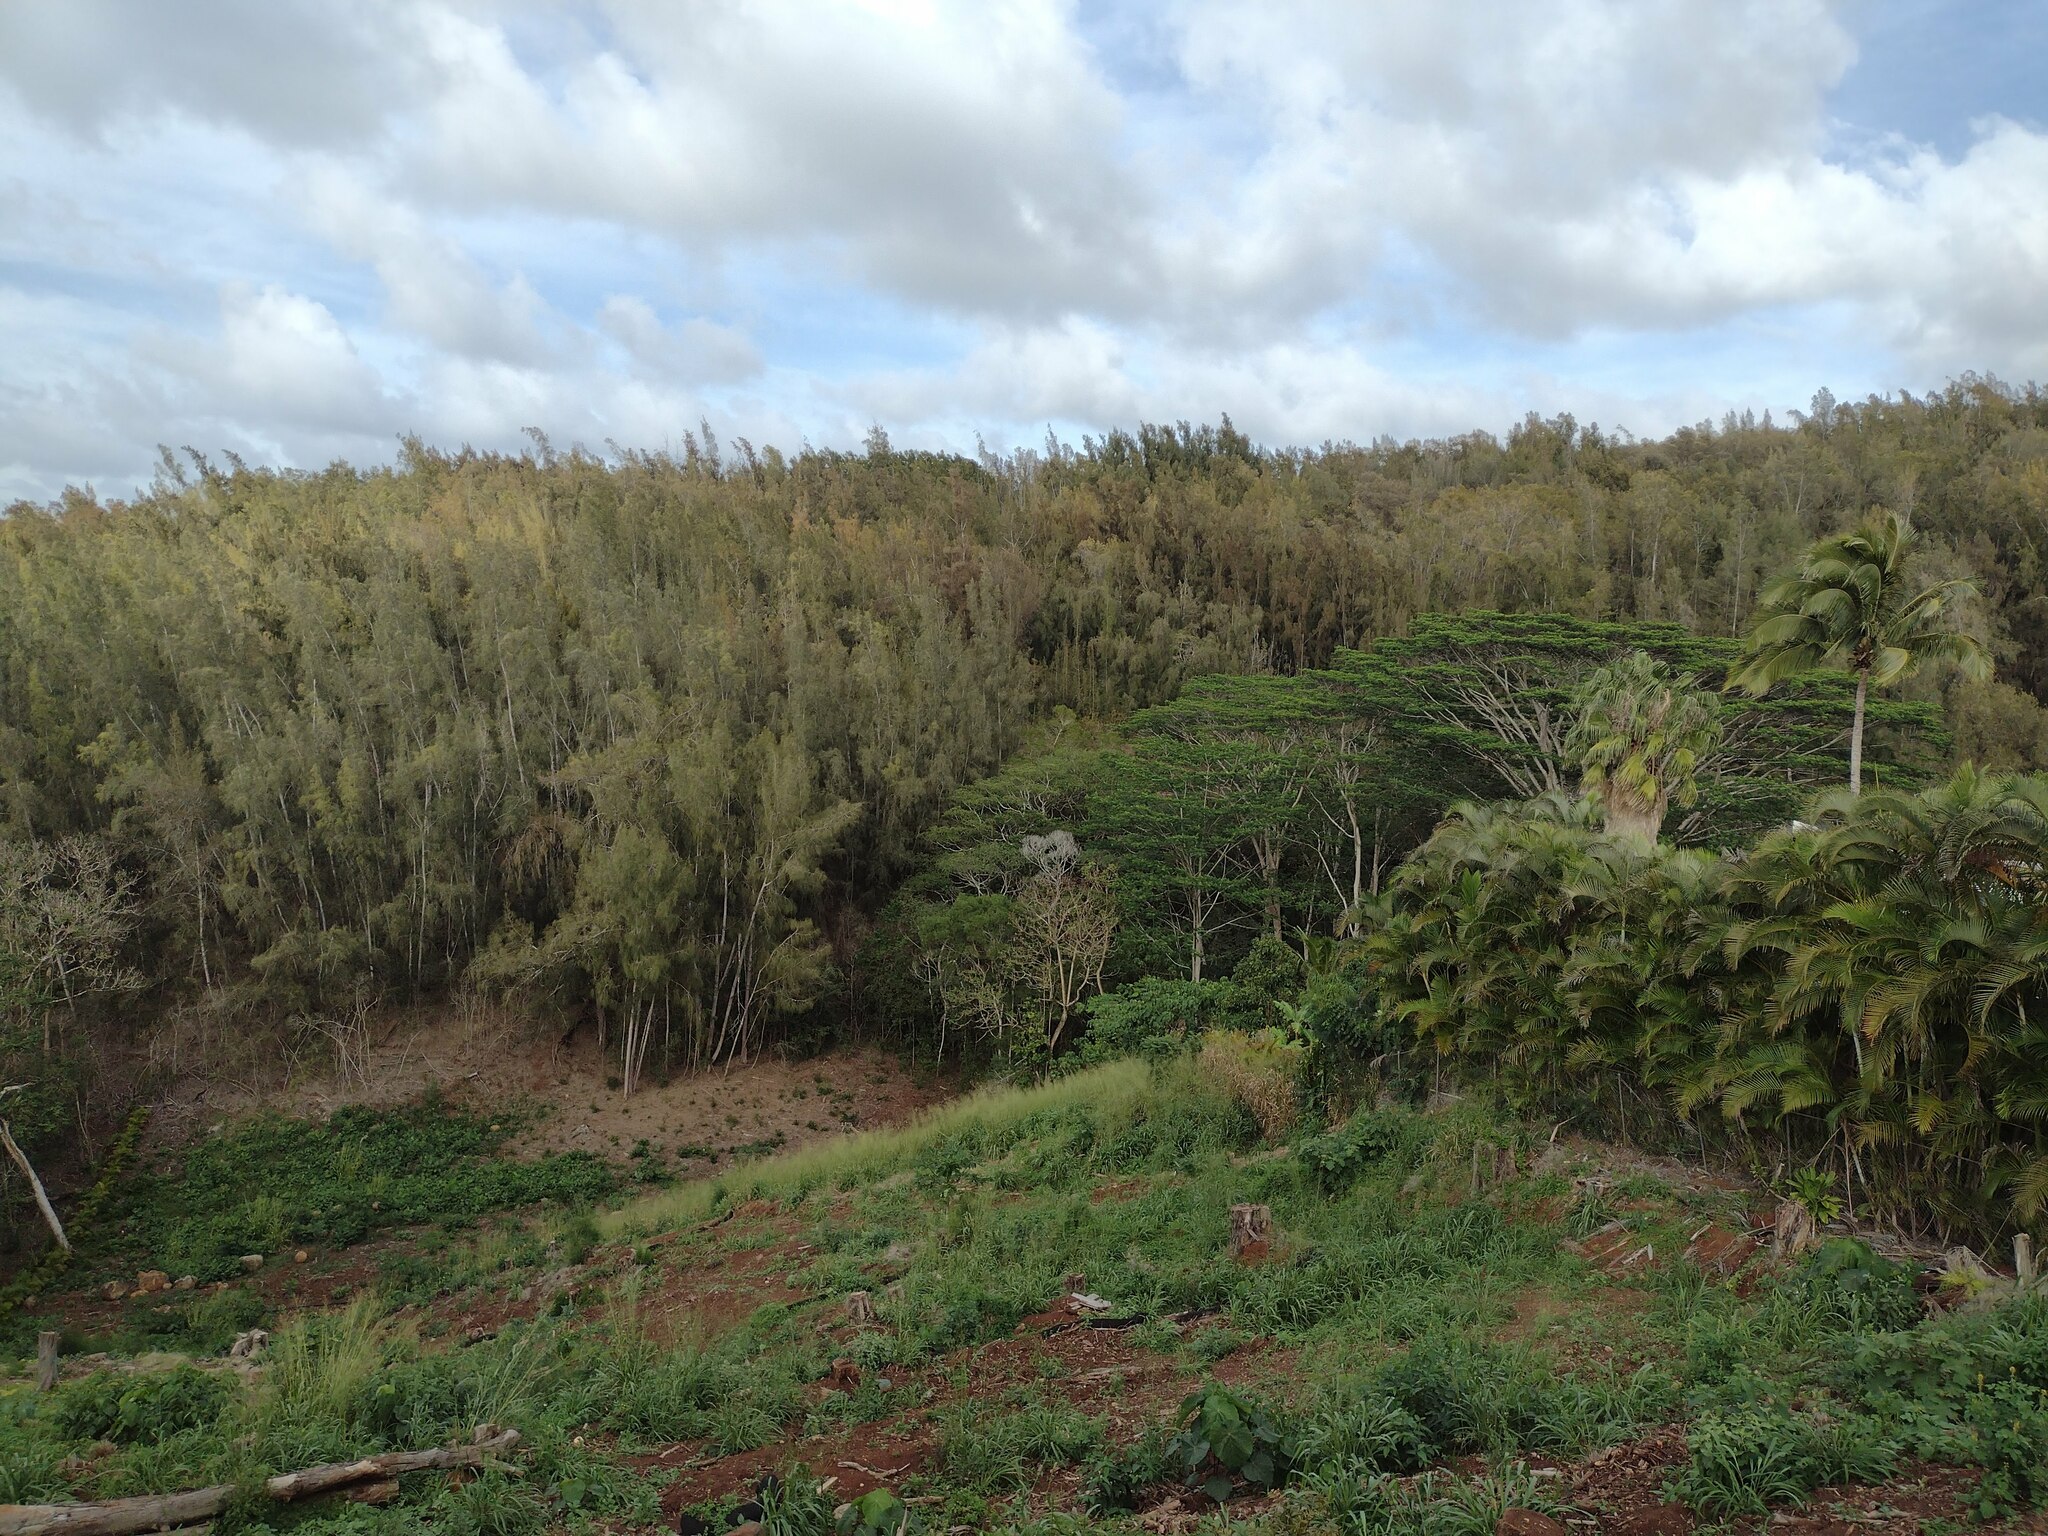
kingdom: Plantae
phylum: Tracheophyta
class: Magnoliopsida
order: Fabales
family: Fabaceae
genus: Falcataria
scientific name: Falcataria falcata
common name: Moluccan albizia
